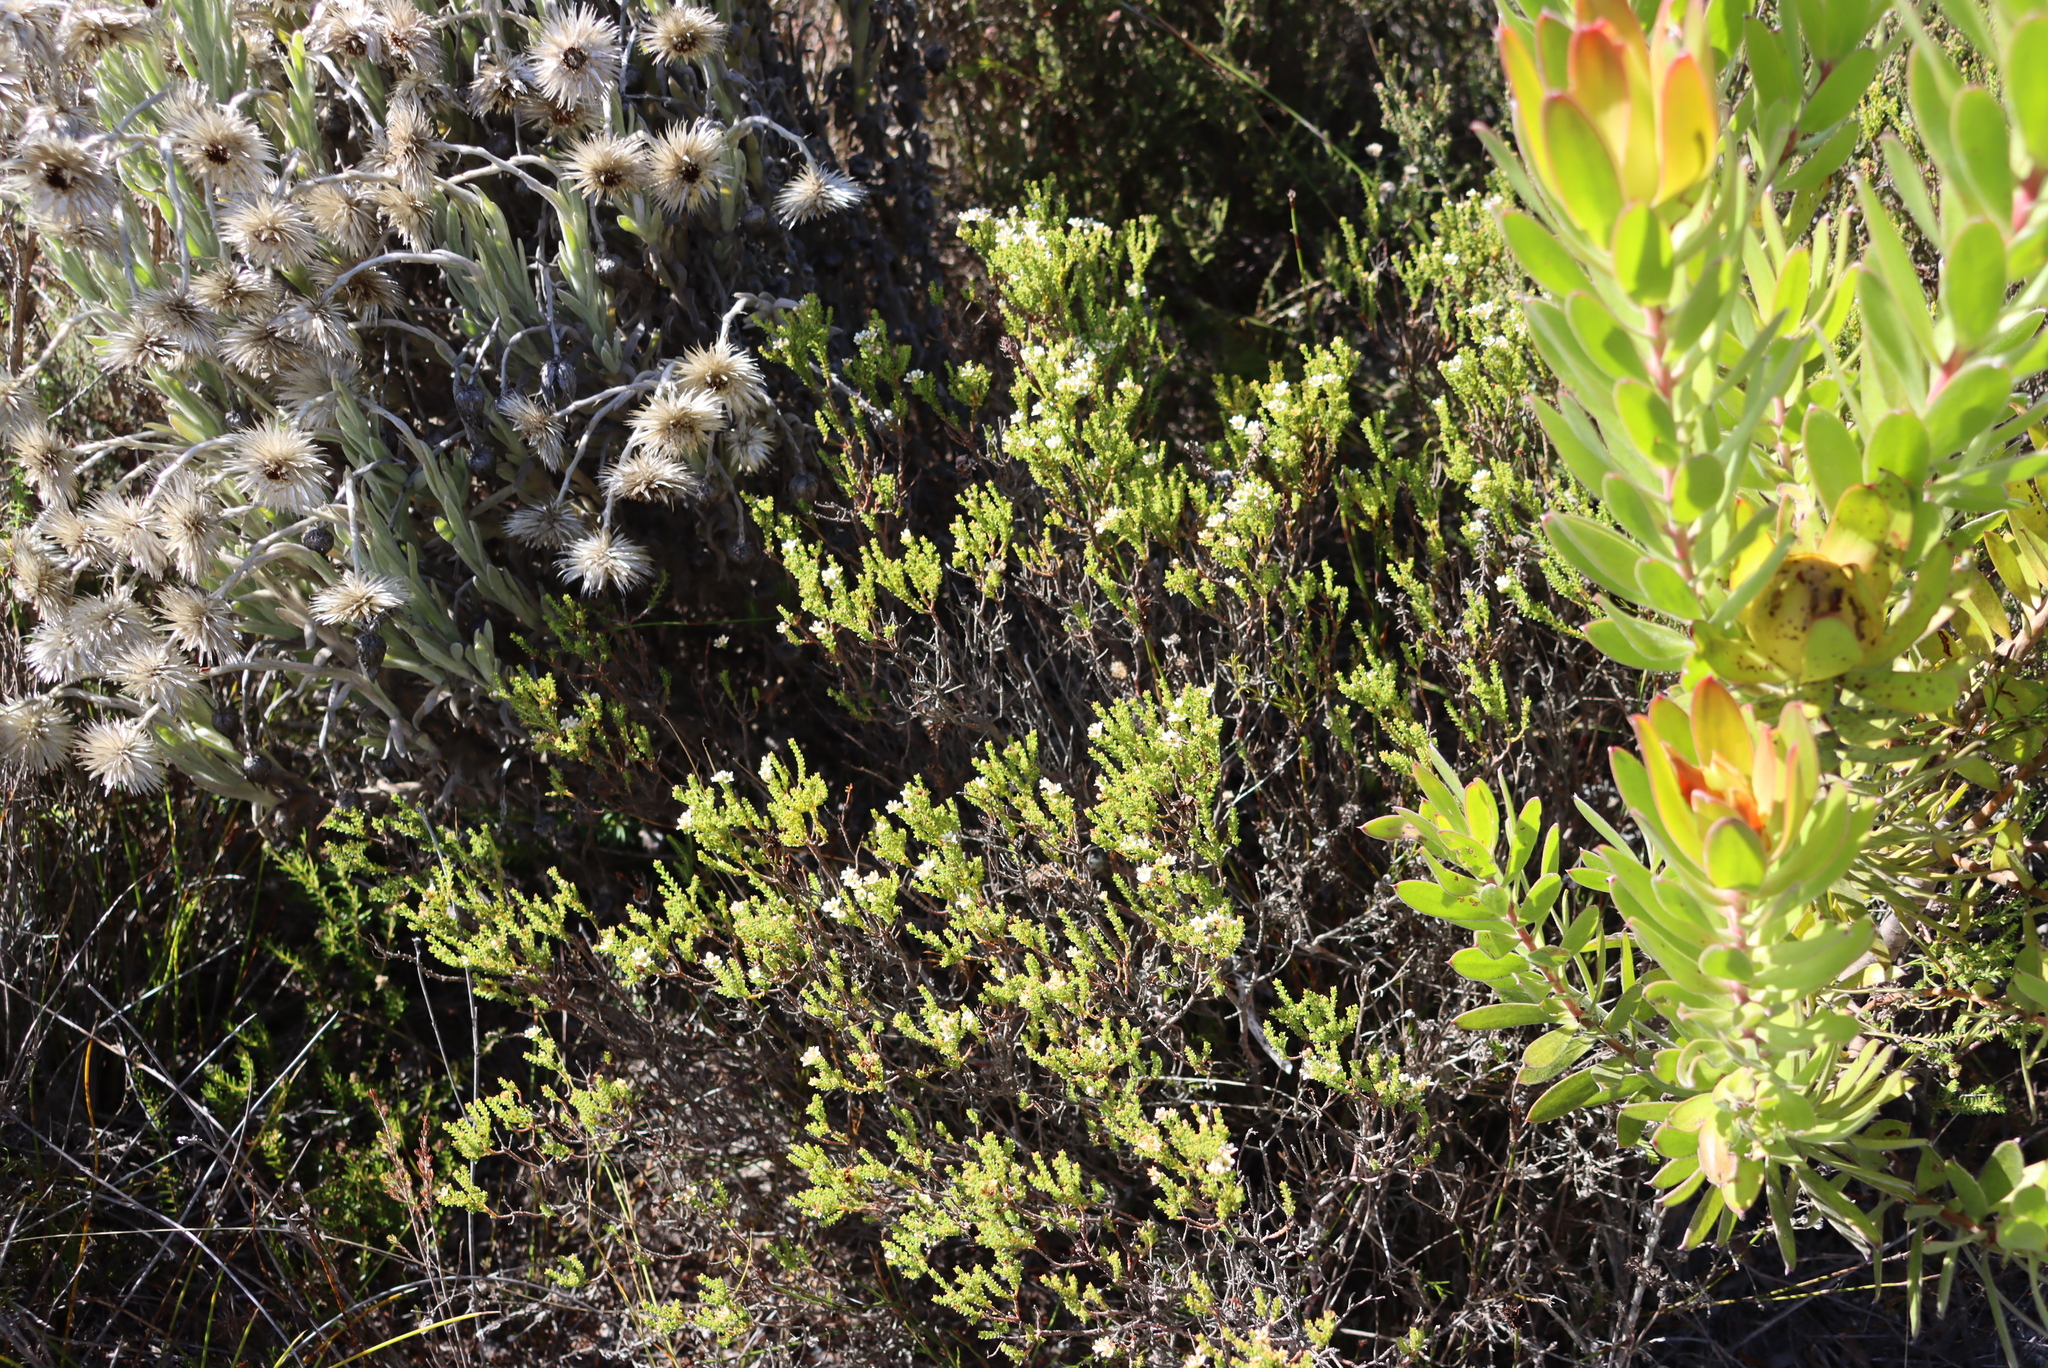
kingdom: Plantae
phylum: Tracheophyta
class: Magnoliopsida
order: Sapindales
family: Rutaceae
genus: Diosma
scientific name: Diosma oppositifolia
